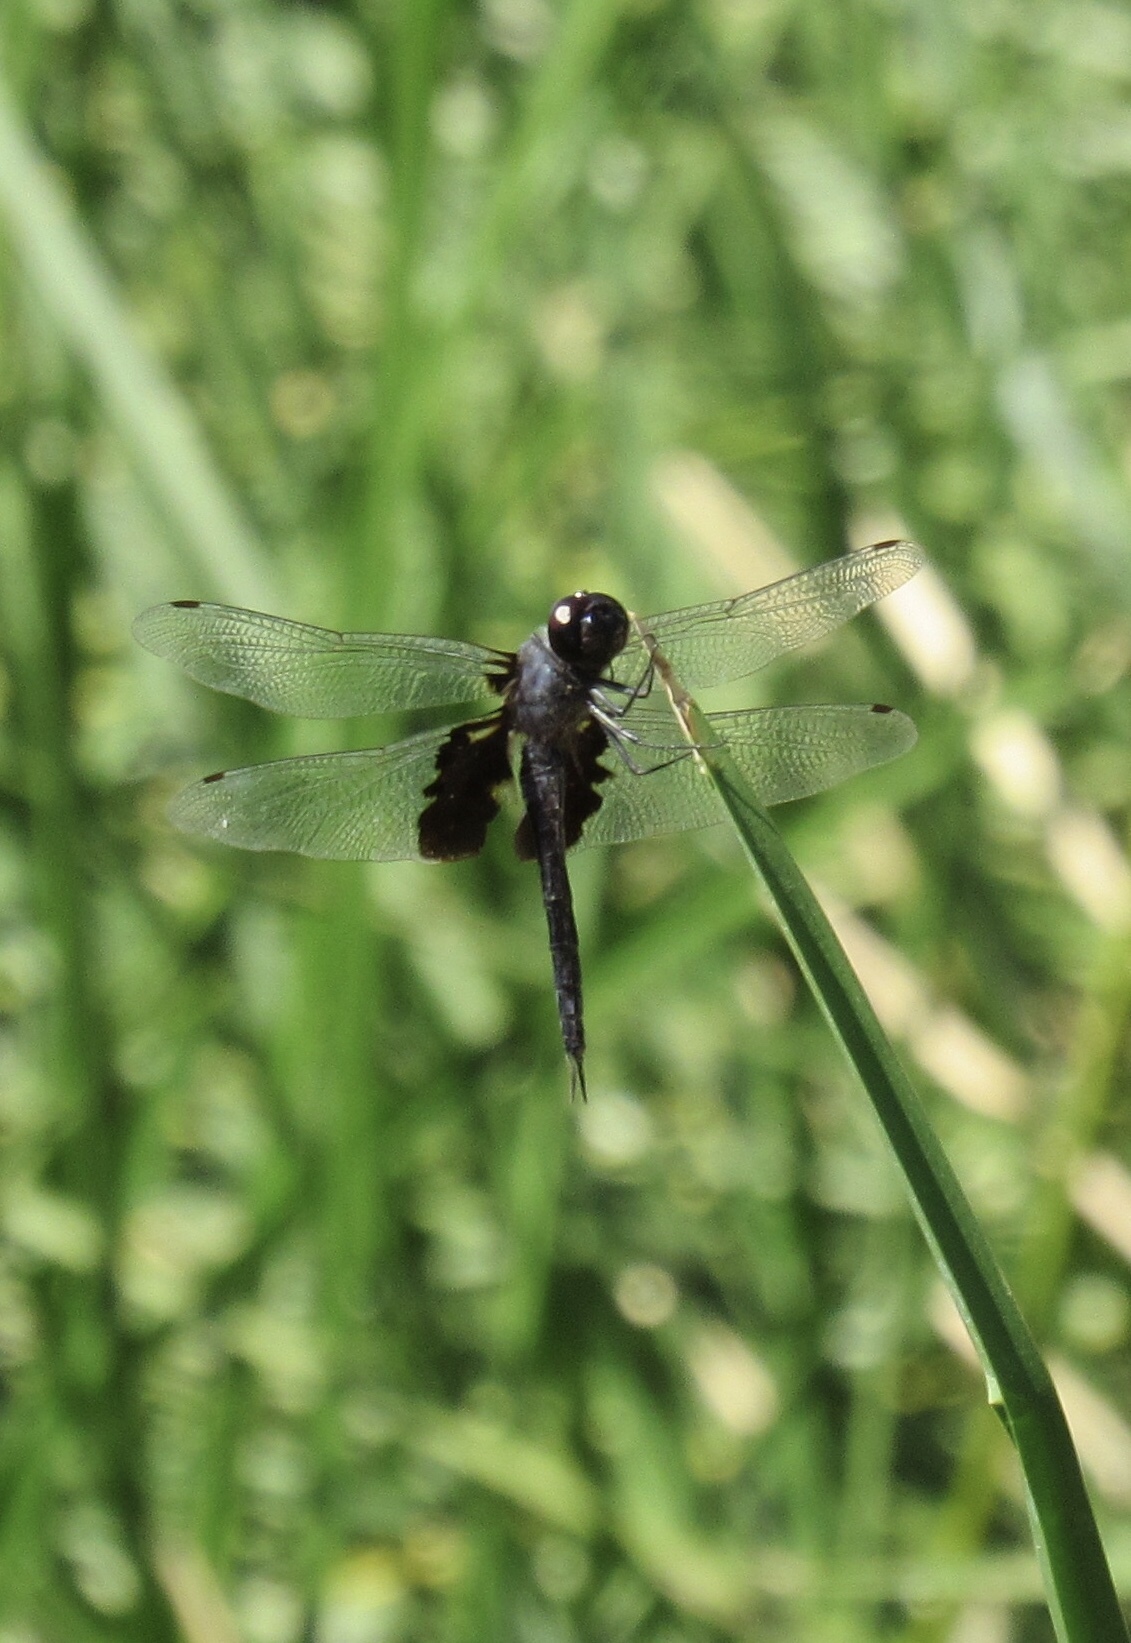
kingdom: Animalia
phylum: Arthropoda
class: Insecta
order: Odonata
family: Libellulidae
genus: Tramea
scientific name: Tramea lacerata
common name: Black saddlebags
